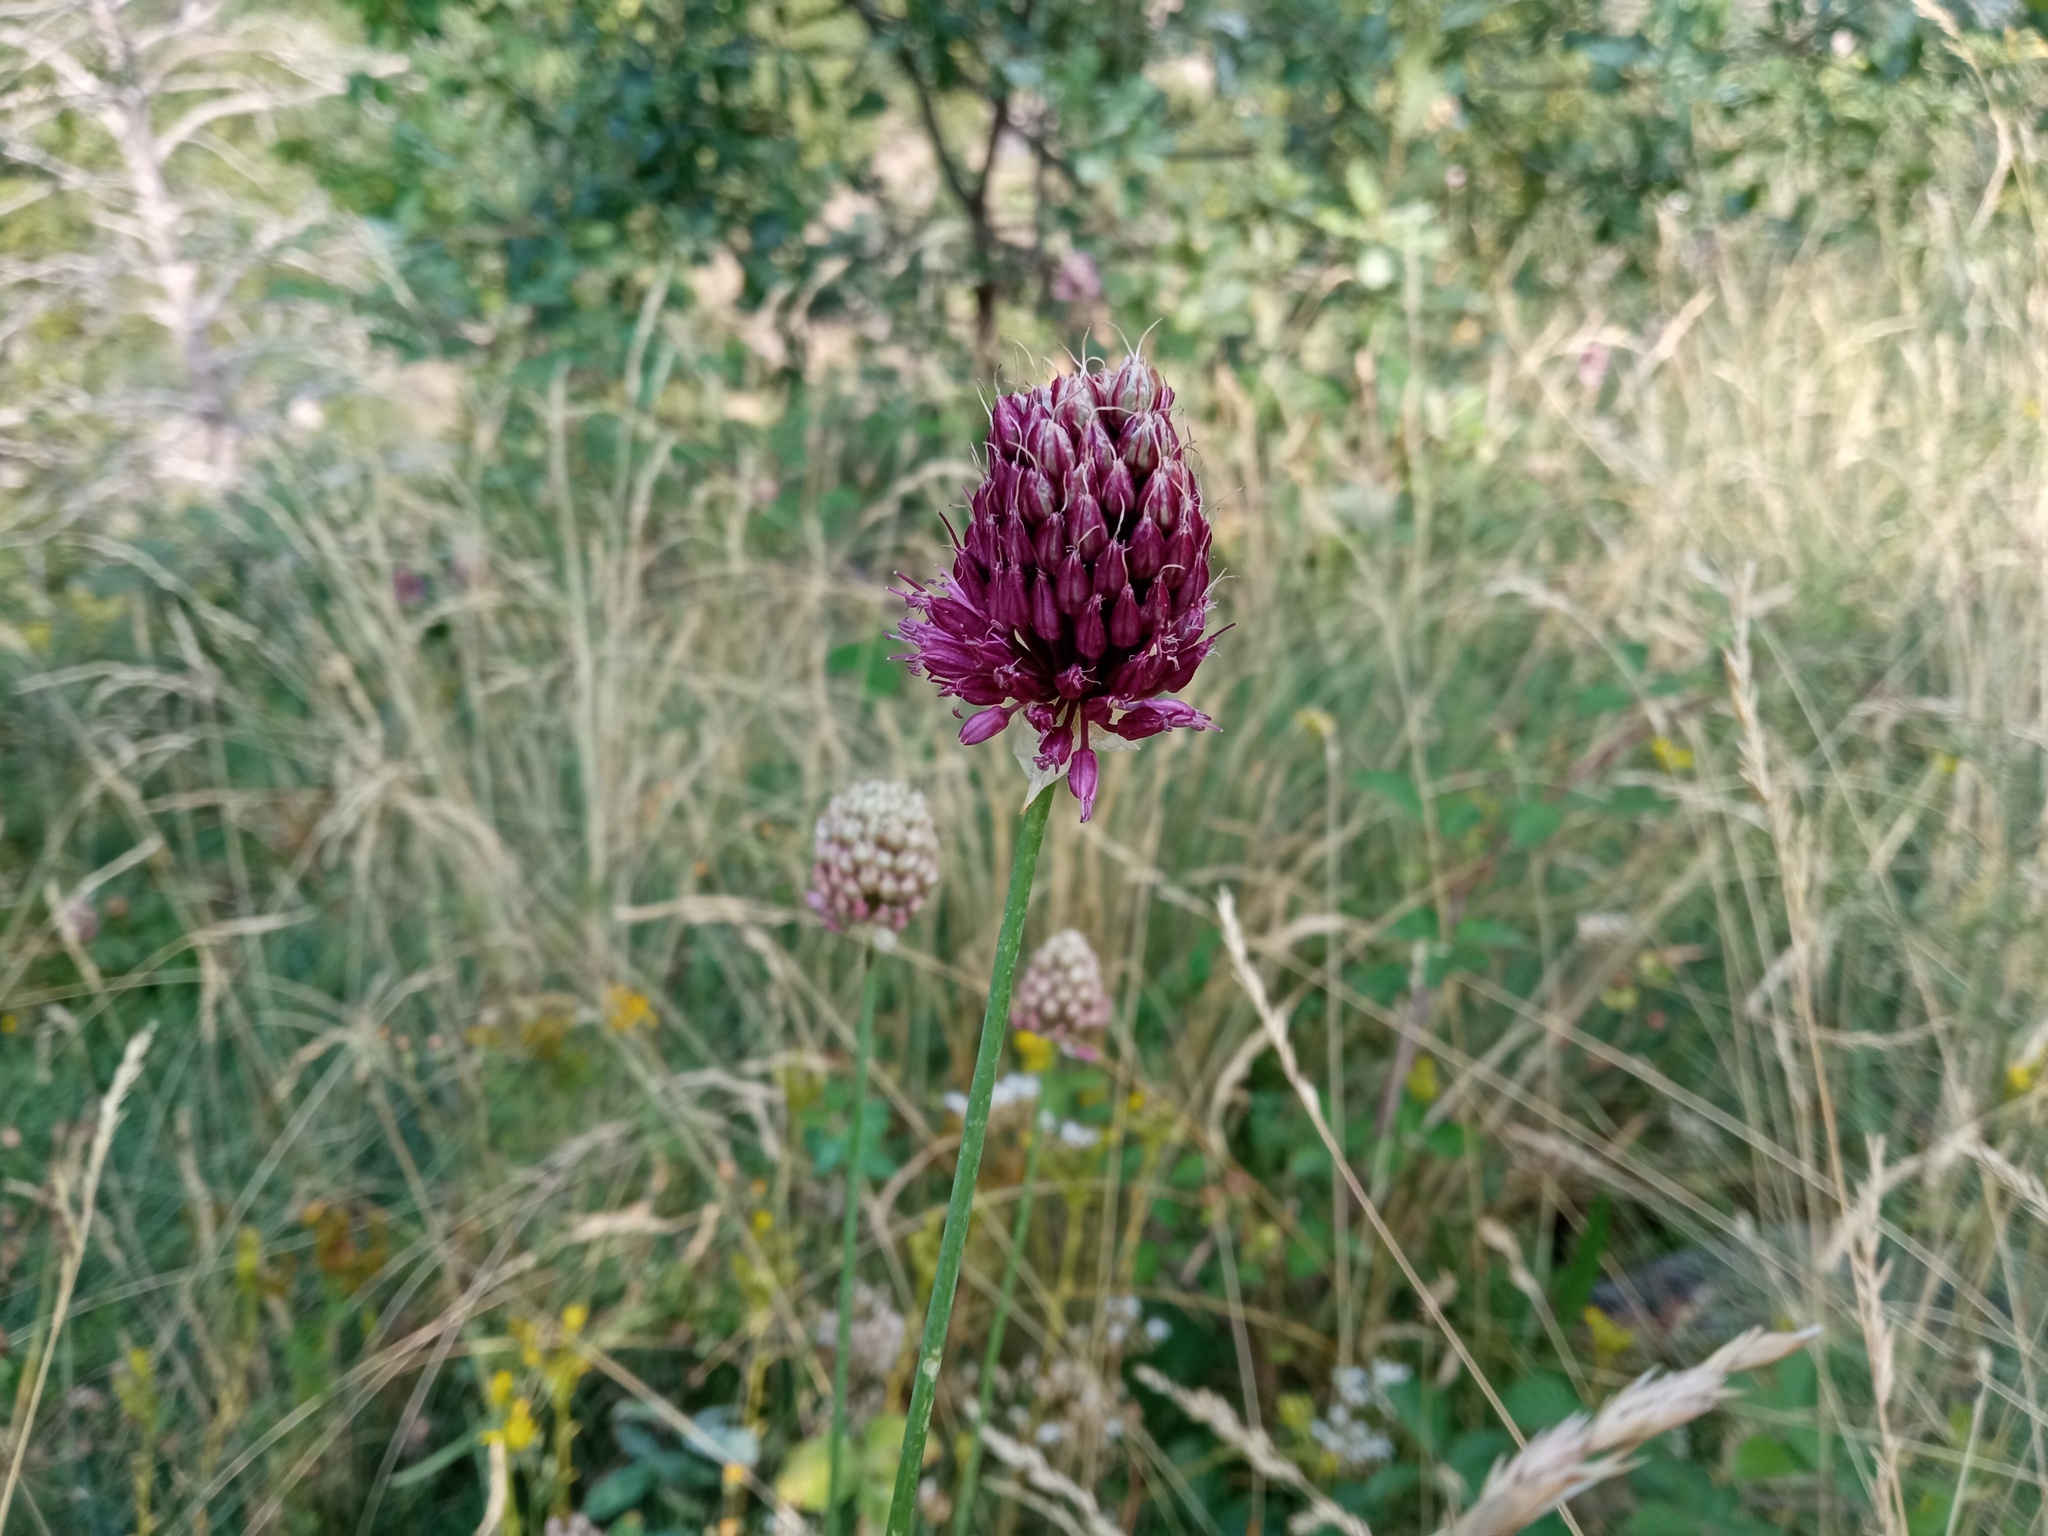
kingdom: Plantae
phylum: Tracheophyta
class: Liliopsida
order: Asparagales
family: Amaryllidaceae
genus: Allium
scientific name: Allium sphaerocephalon
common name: Round-headed leek
